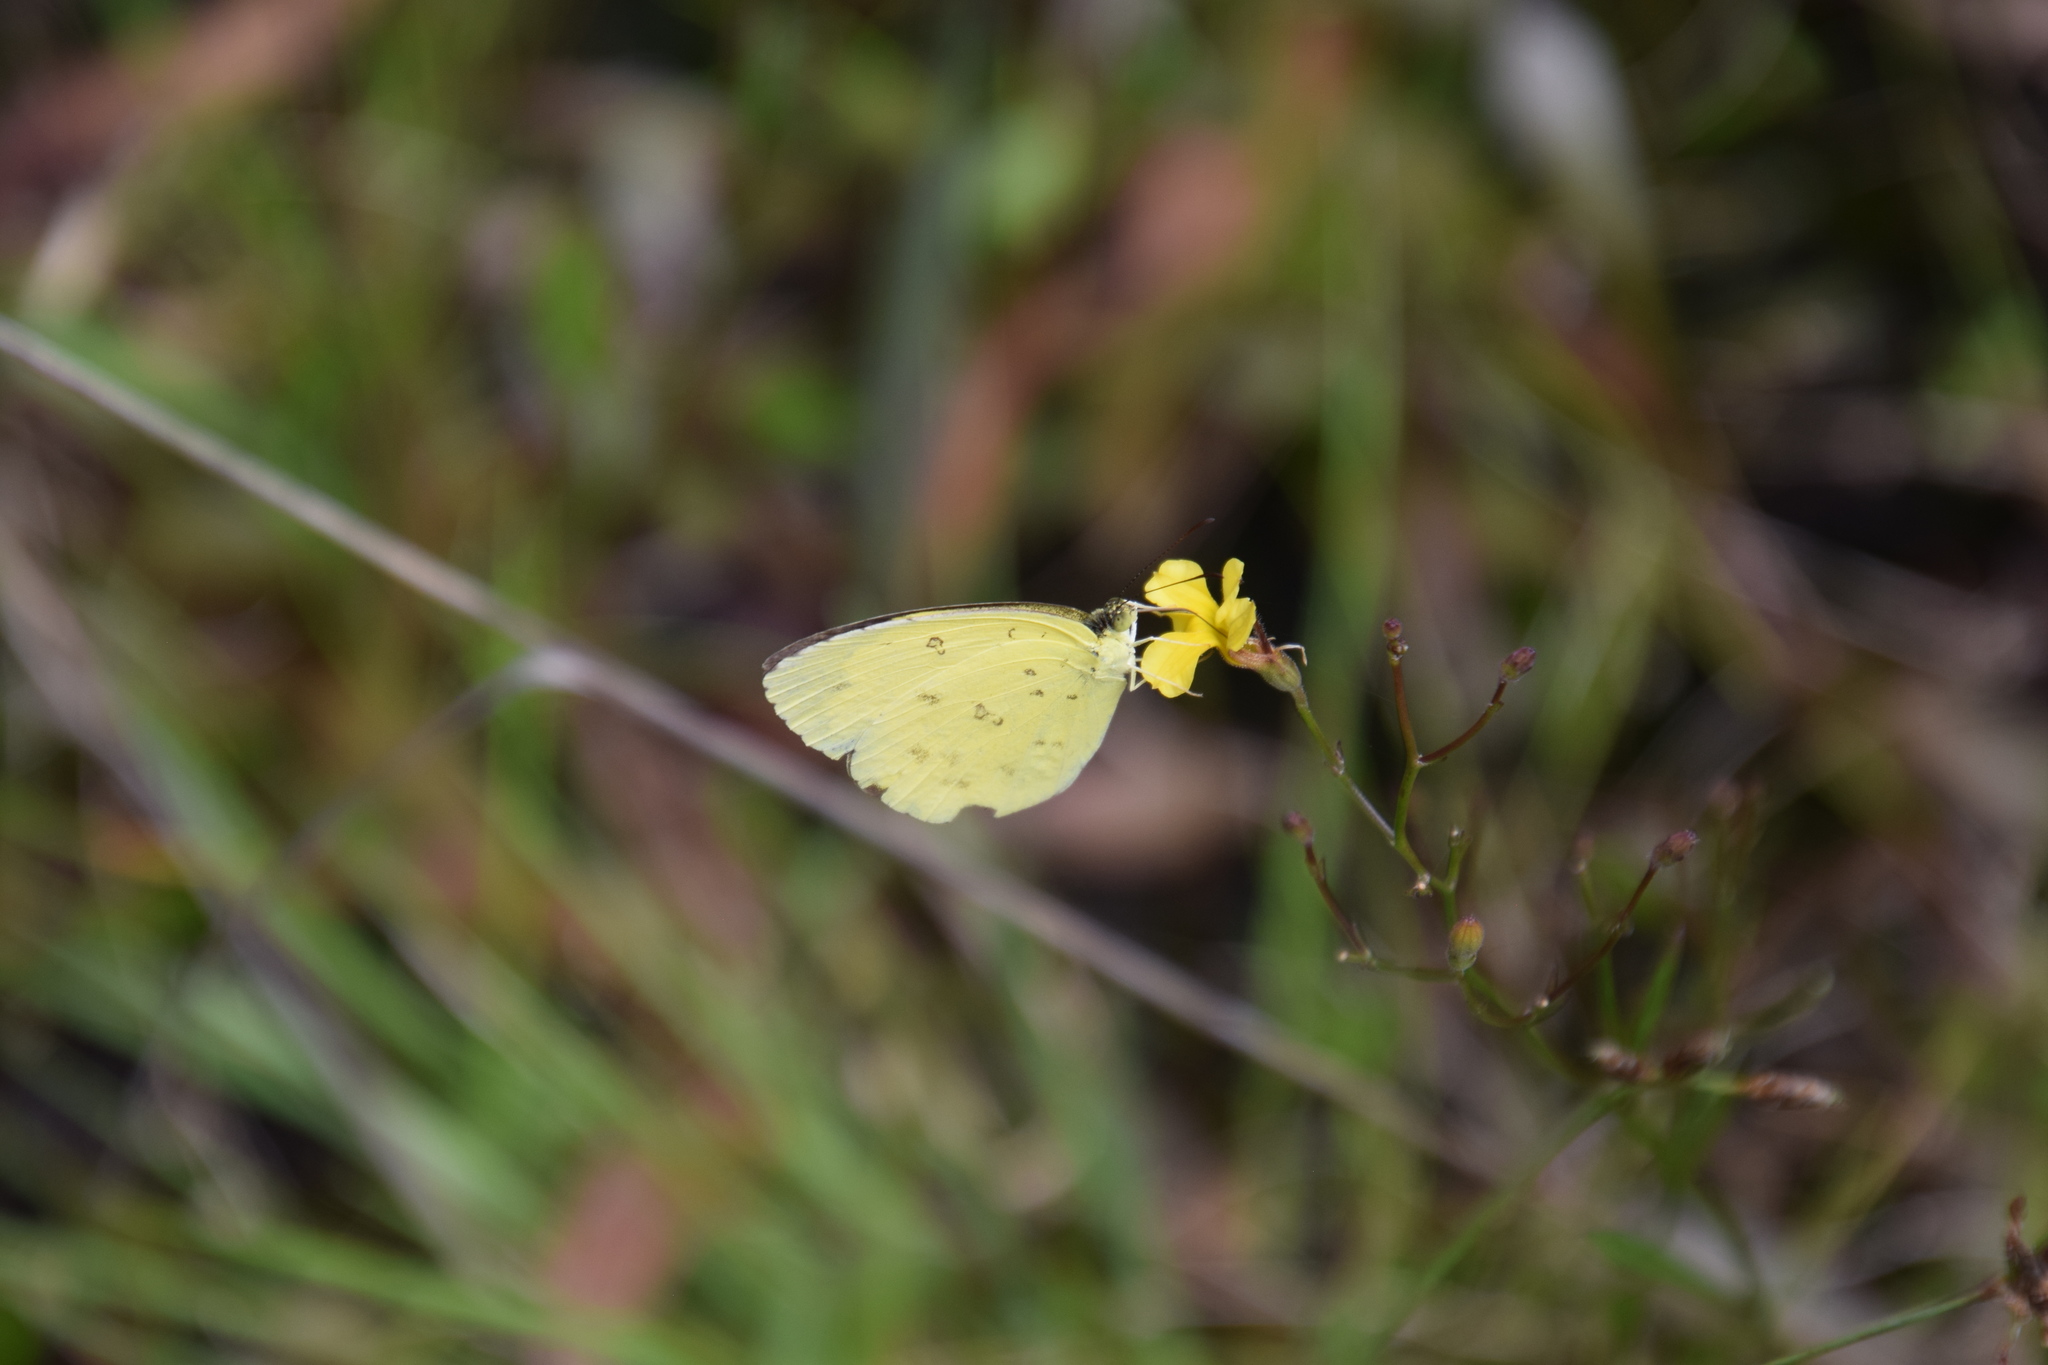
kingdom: Animalia
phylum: Arthropoda
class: Insecta
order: Lepidoptera
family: Pieridae
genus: Eurema
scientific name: Eurema hecabe
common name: Pale grass yellow
